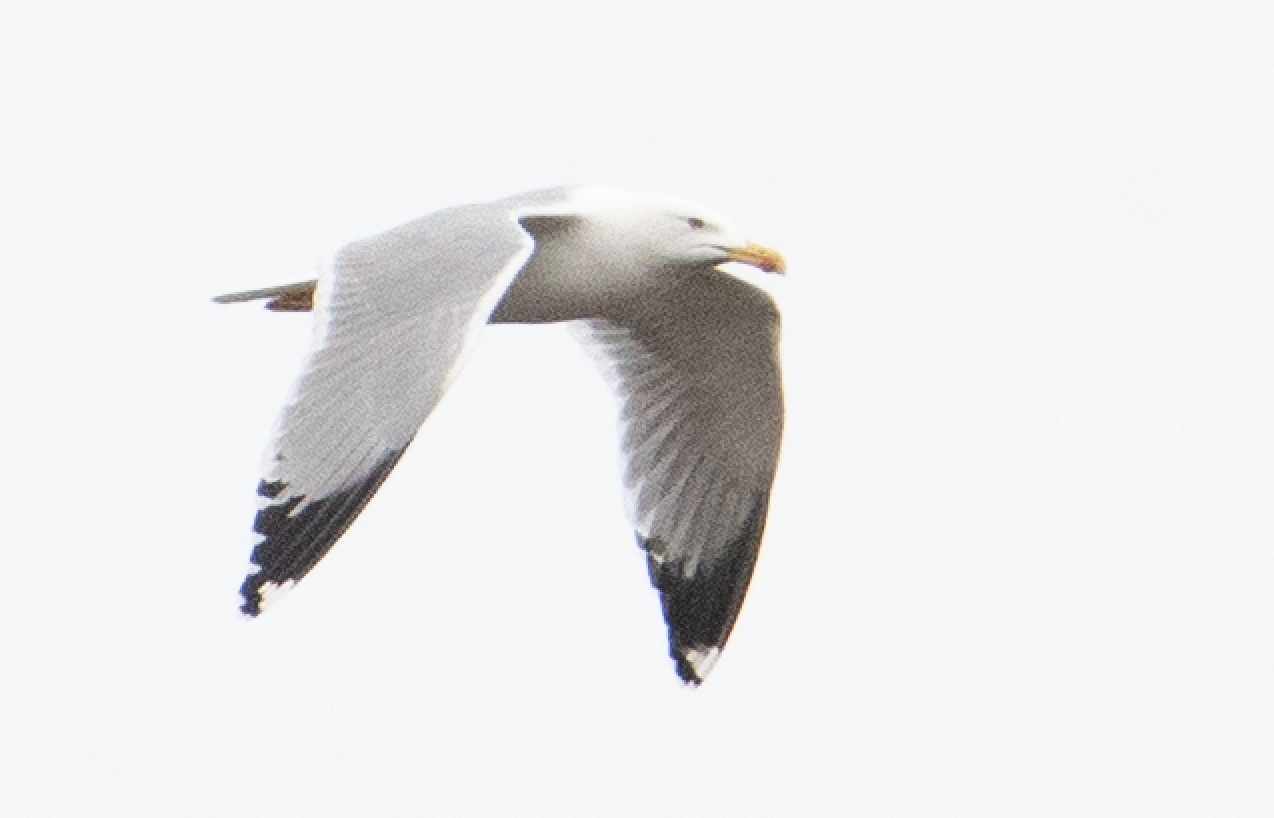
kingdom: Animalia
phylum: Chordata
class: Aves
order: Charadriiformes
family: Laridae
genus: Larus
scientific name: Larus michahellis
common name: Yellow-legged gull
